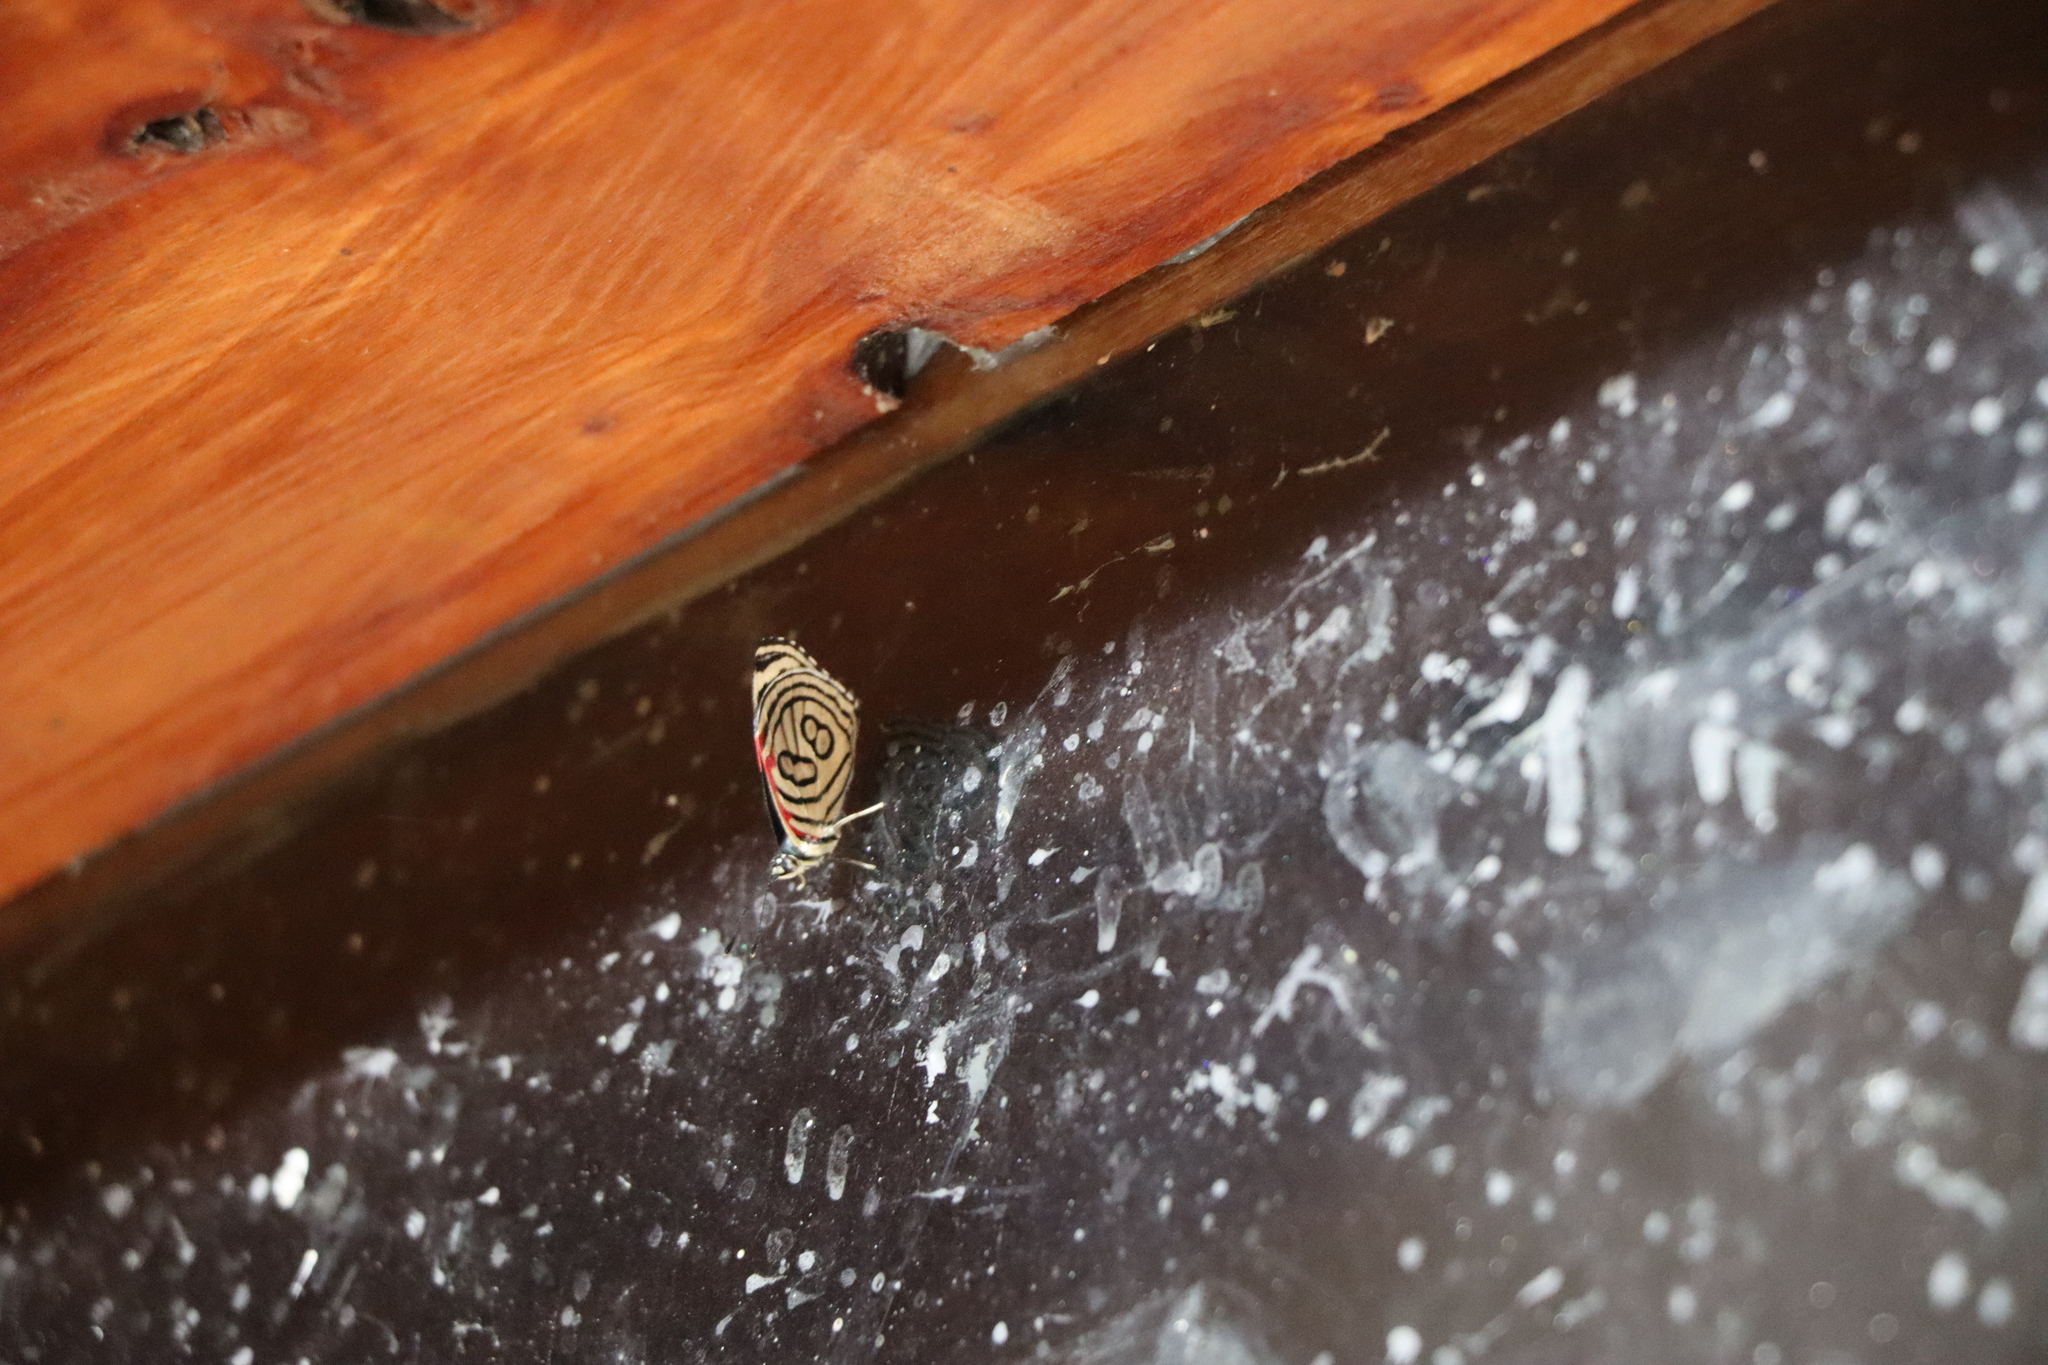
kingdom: Animalia
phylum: Arthropoda
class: Insecta
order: Lepidoptera
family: Nymphalidae
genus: Diaethria
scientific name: Diaethria candrena
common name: Number eighty
